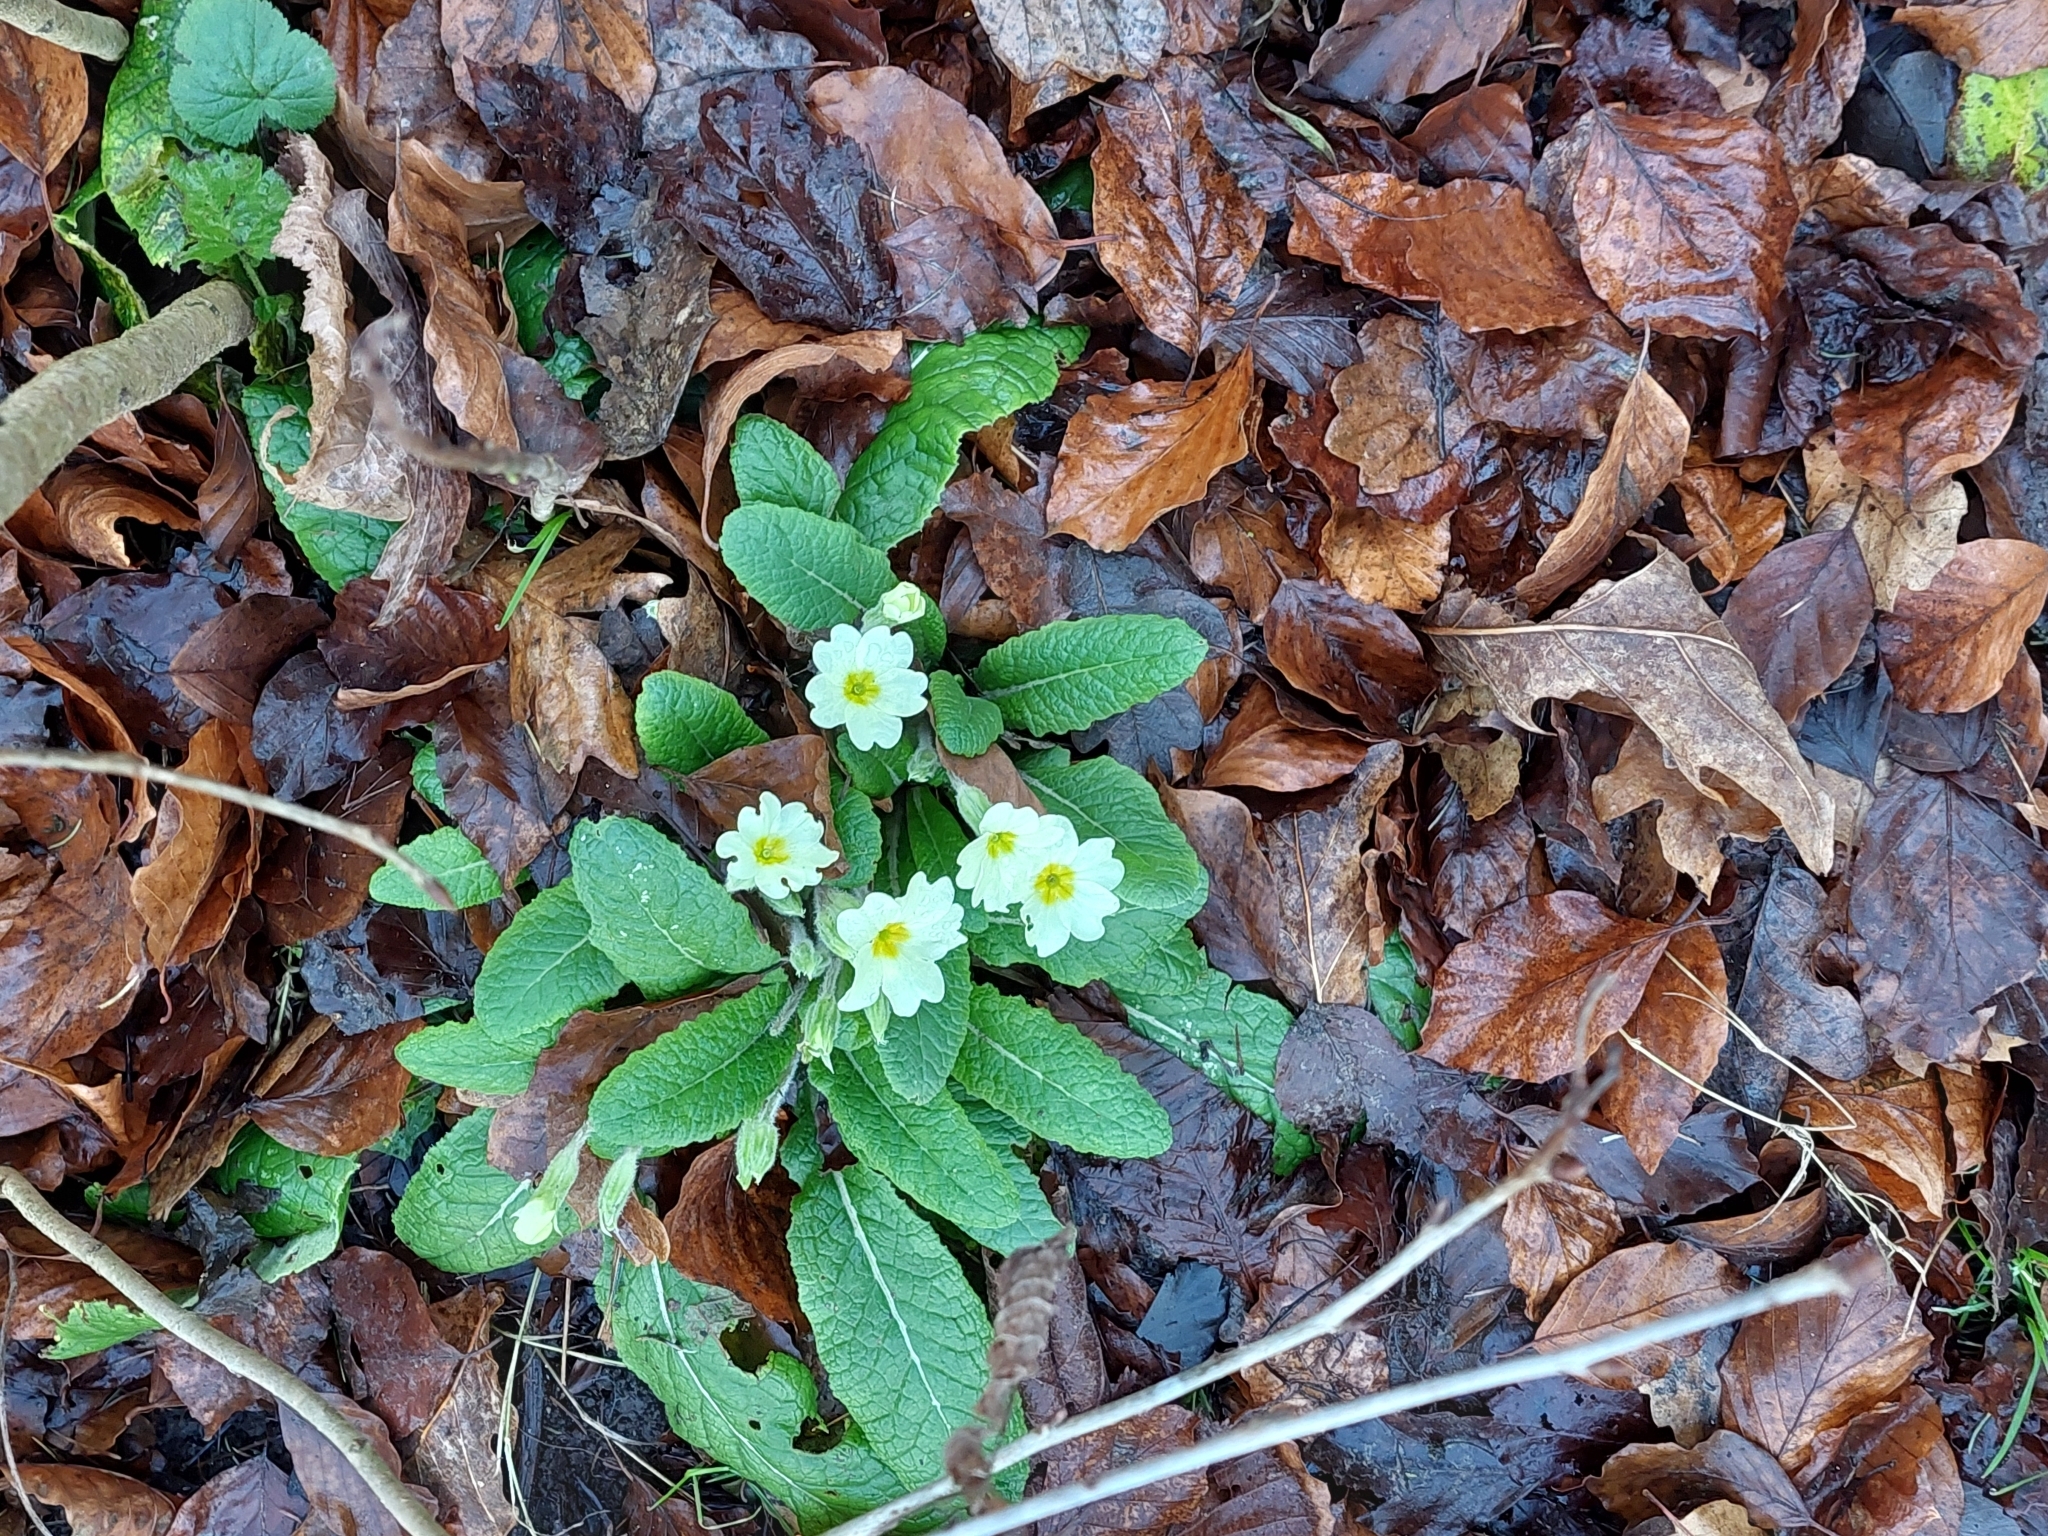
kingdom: Plantae
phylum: Tracheophyta
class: Magnoliopsida
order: Ericales
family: Primulaceae
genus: Primula
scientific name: Primula vulgaris
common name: Primrose
